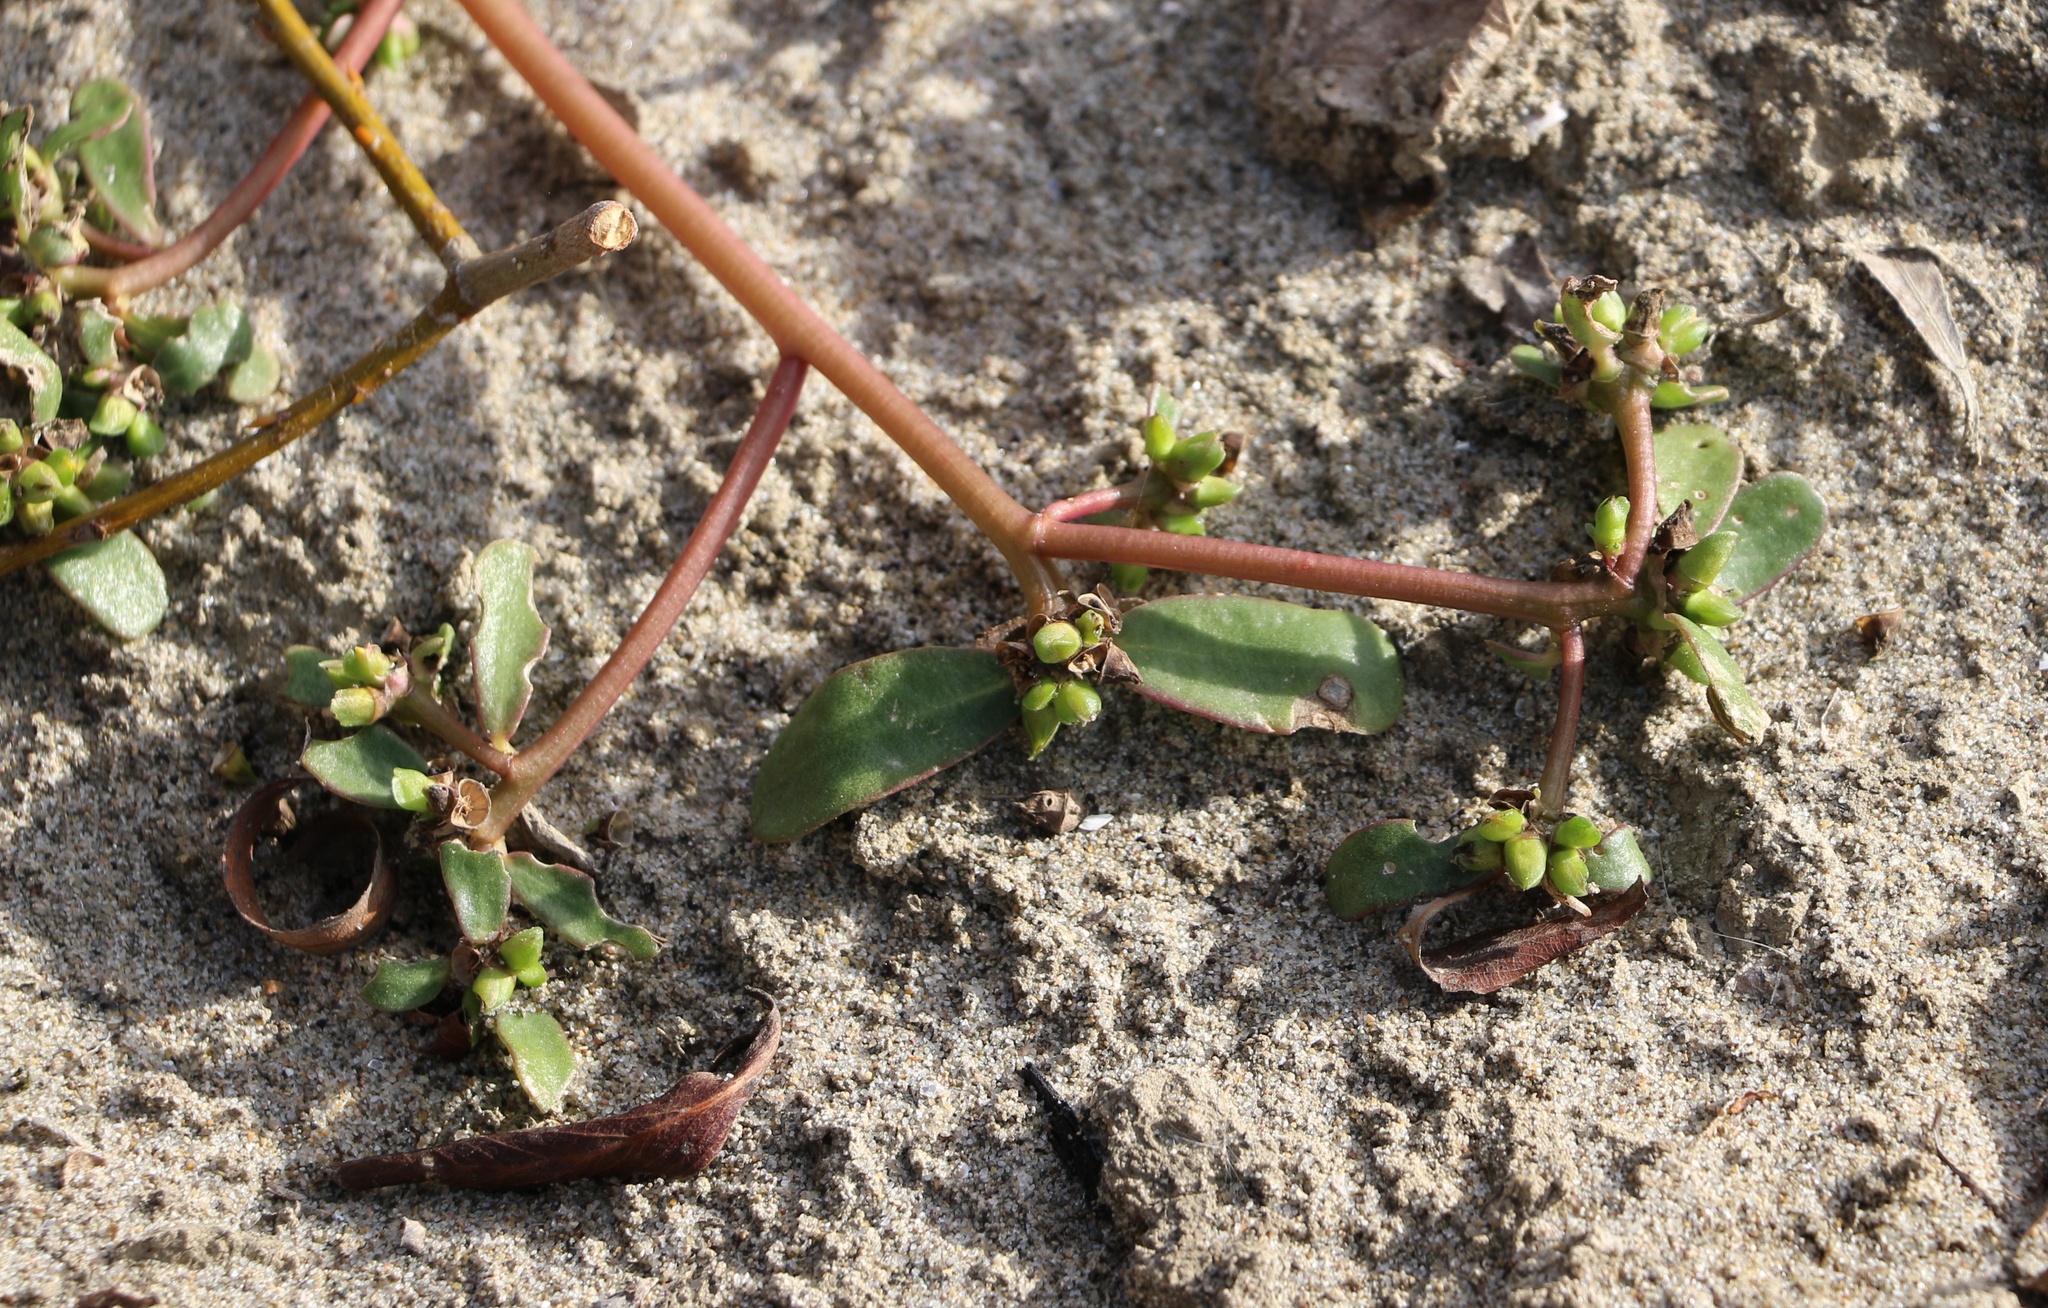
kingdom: Plantae
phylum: Tracheophyta
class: Magnoliopsida
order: Caryophyllales
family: Portulacaceae
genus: Portulaca
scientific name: Portulaca oleracea
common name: Common purslane
